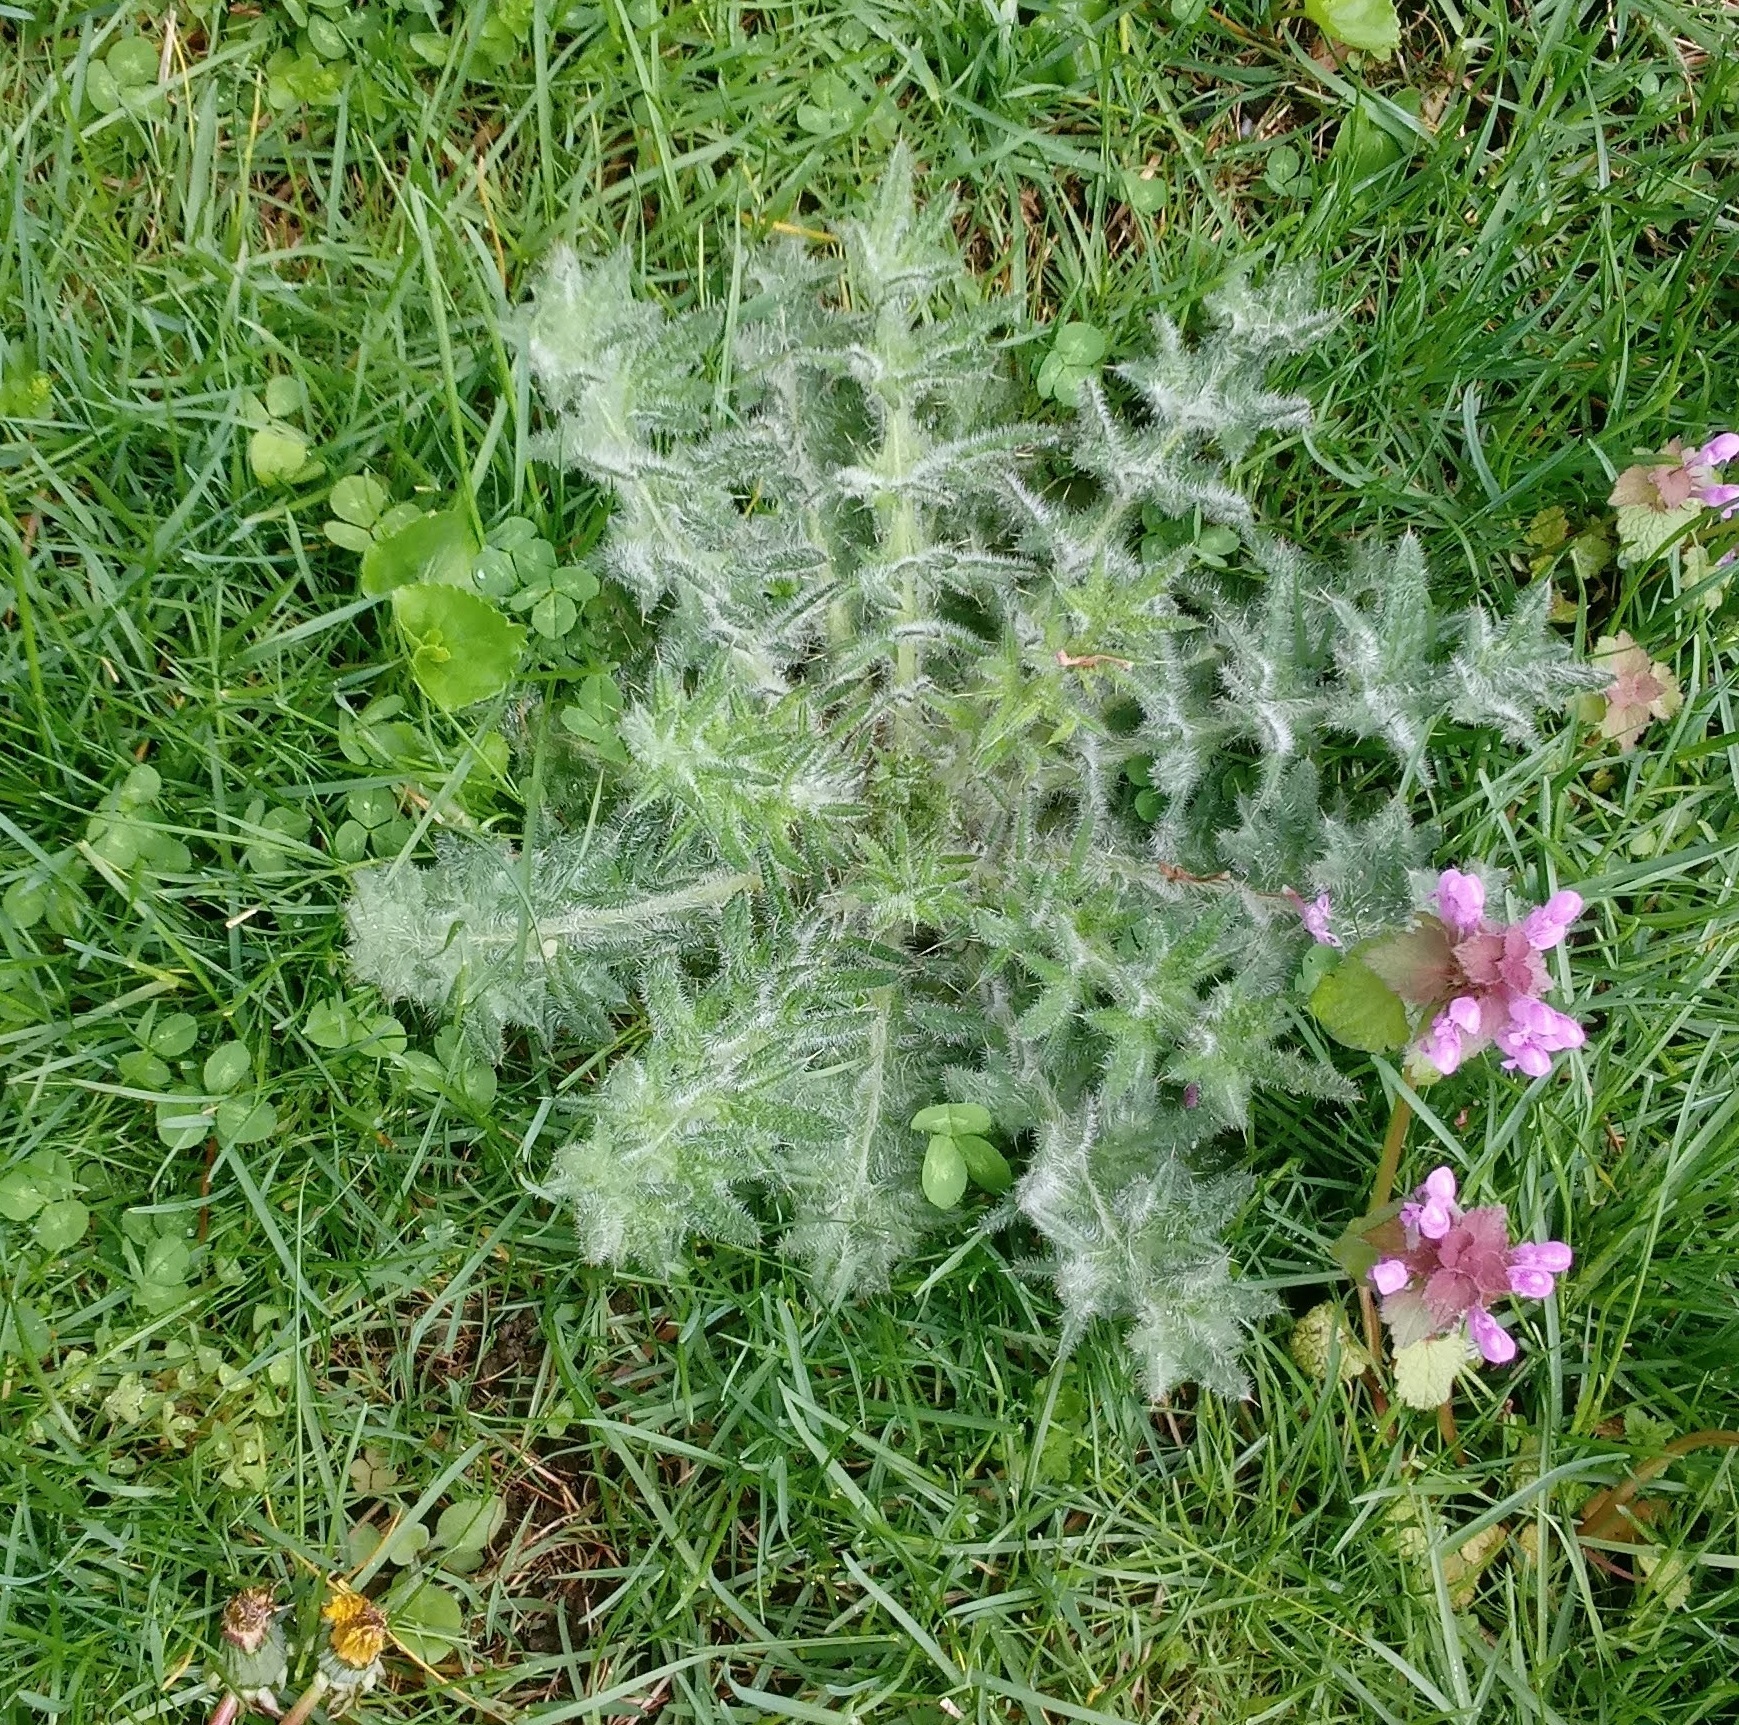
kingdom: Plantae
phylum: Tracheophyta
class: Magnoliopsida
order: Asterales
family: Asteraceae
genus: Cirsium
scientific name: Cirsium vulgare
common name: Bull thistle
